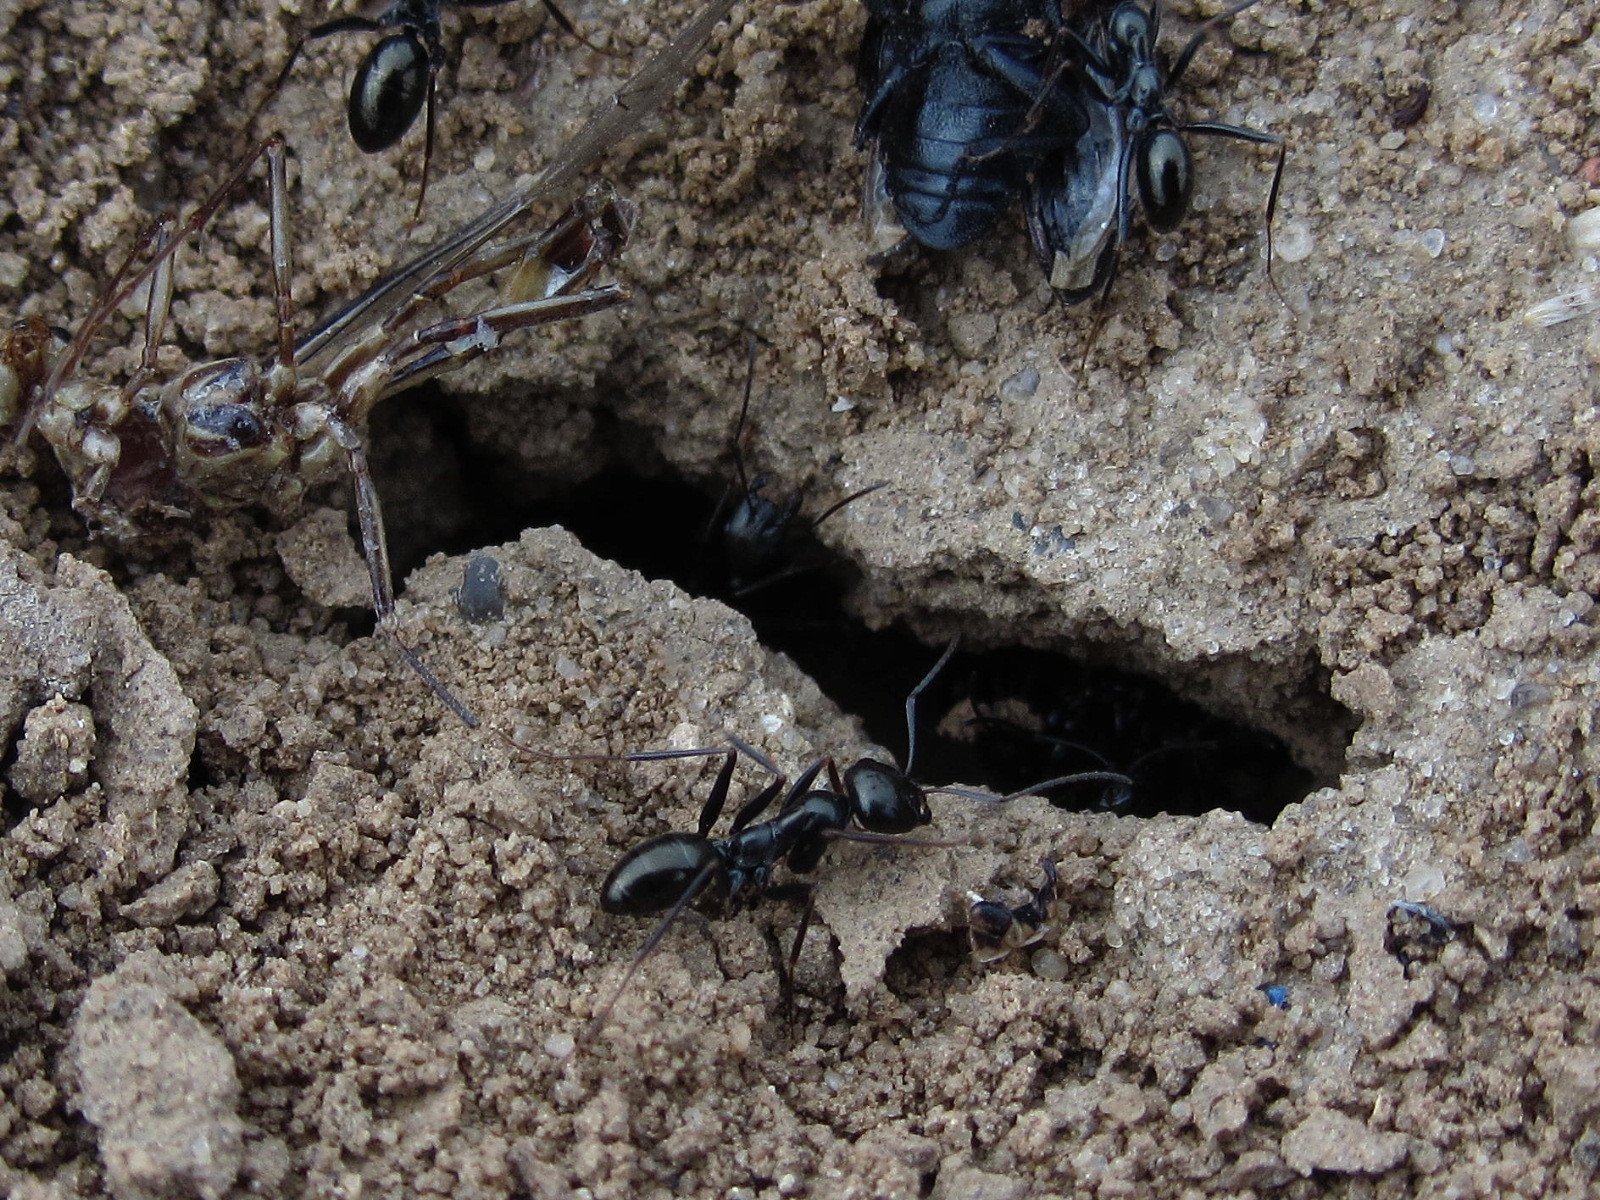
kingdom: Animalia
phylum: Arthropoda
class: Insecta
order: Hymenoptera
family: Formicidae
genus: Cataglyphis
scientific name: Cataglyphis aenescens
